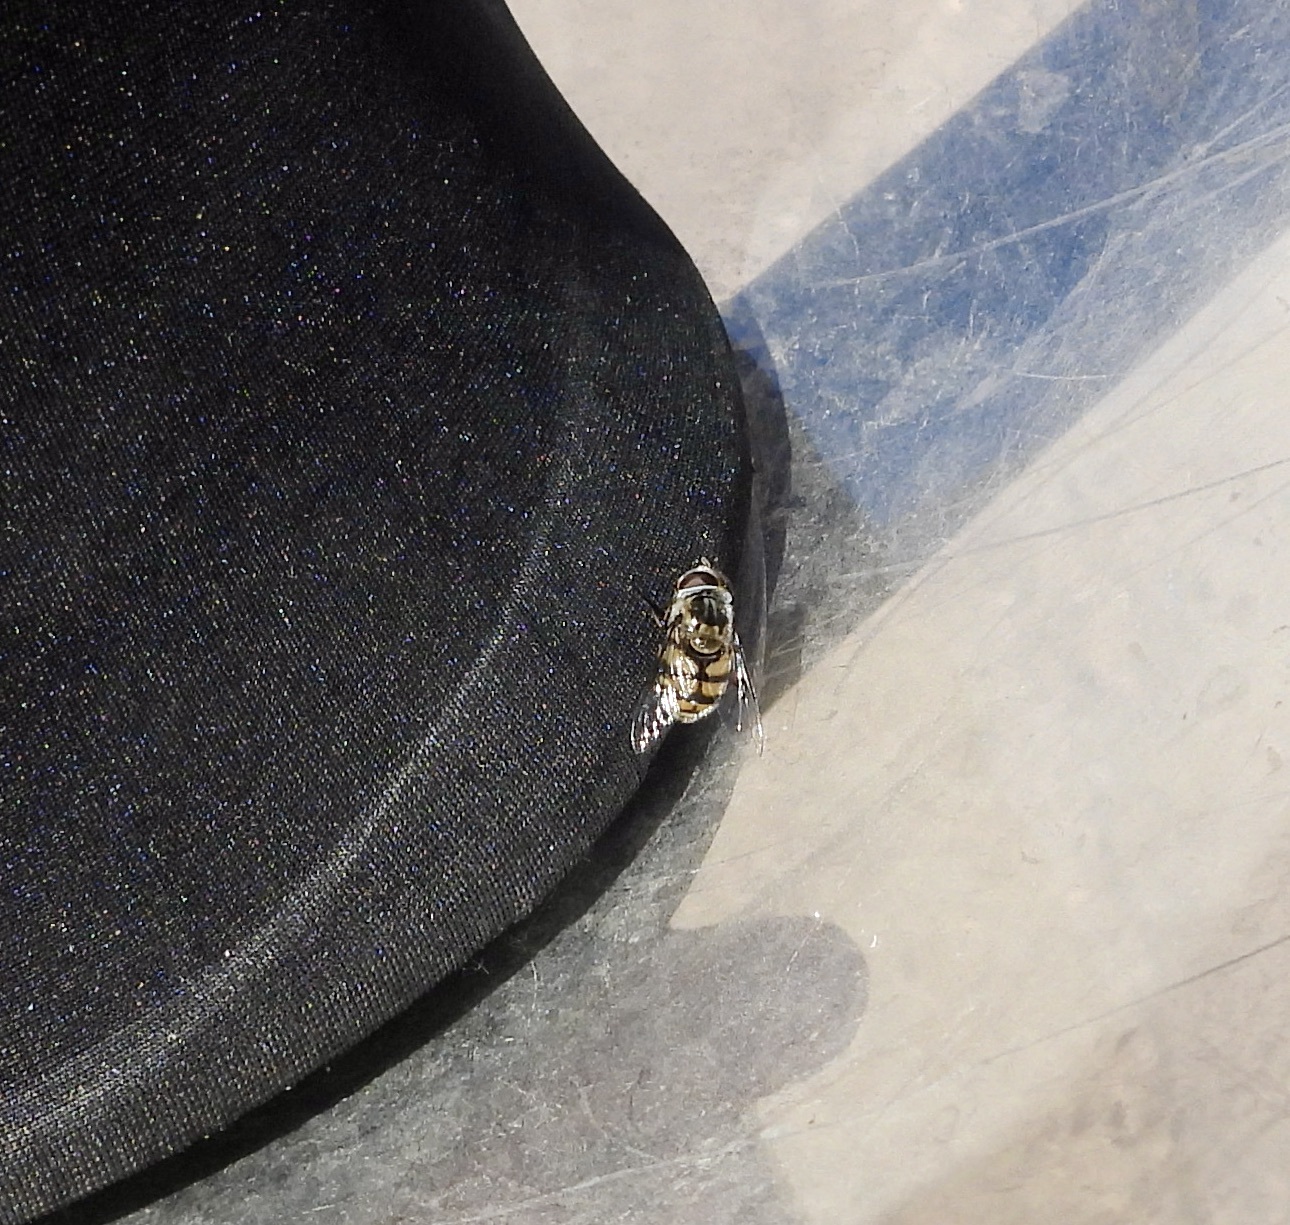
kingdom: Animalia
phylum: Arthropoda
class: Insecta
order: Diptera
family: Syrphidae
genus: Copestylum
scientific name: Copestylum avidum
